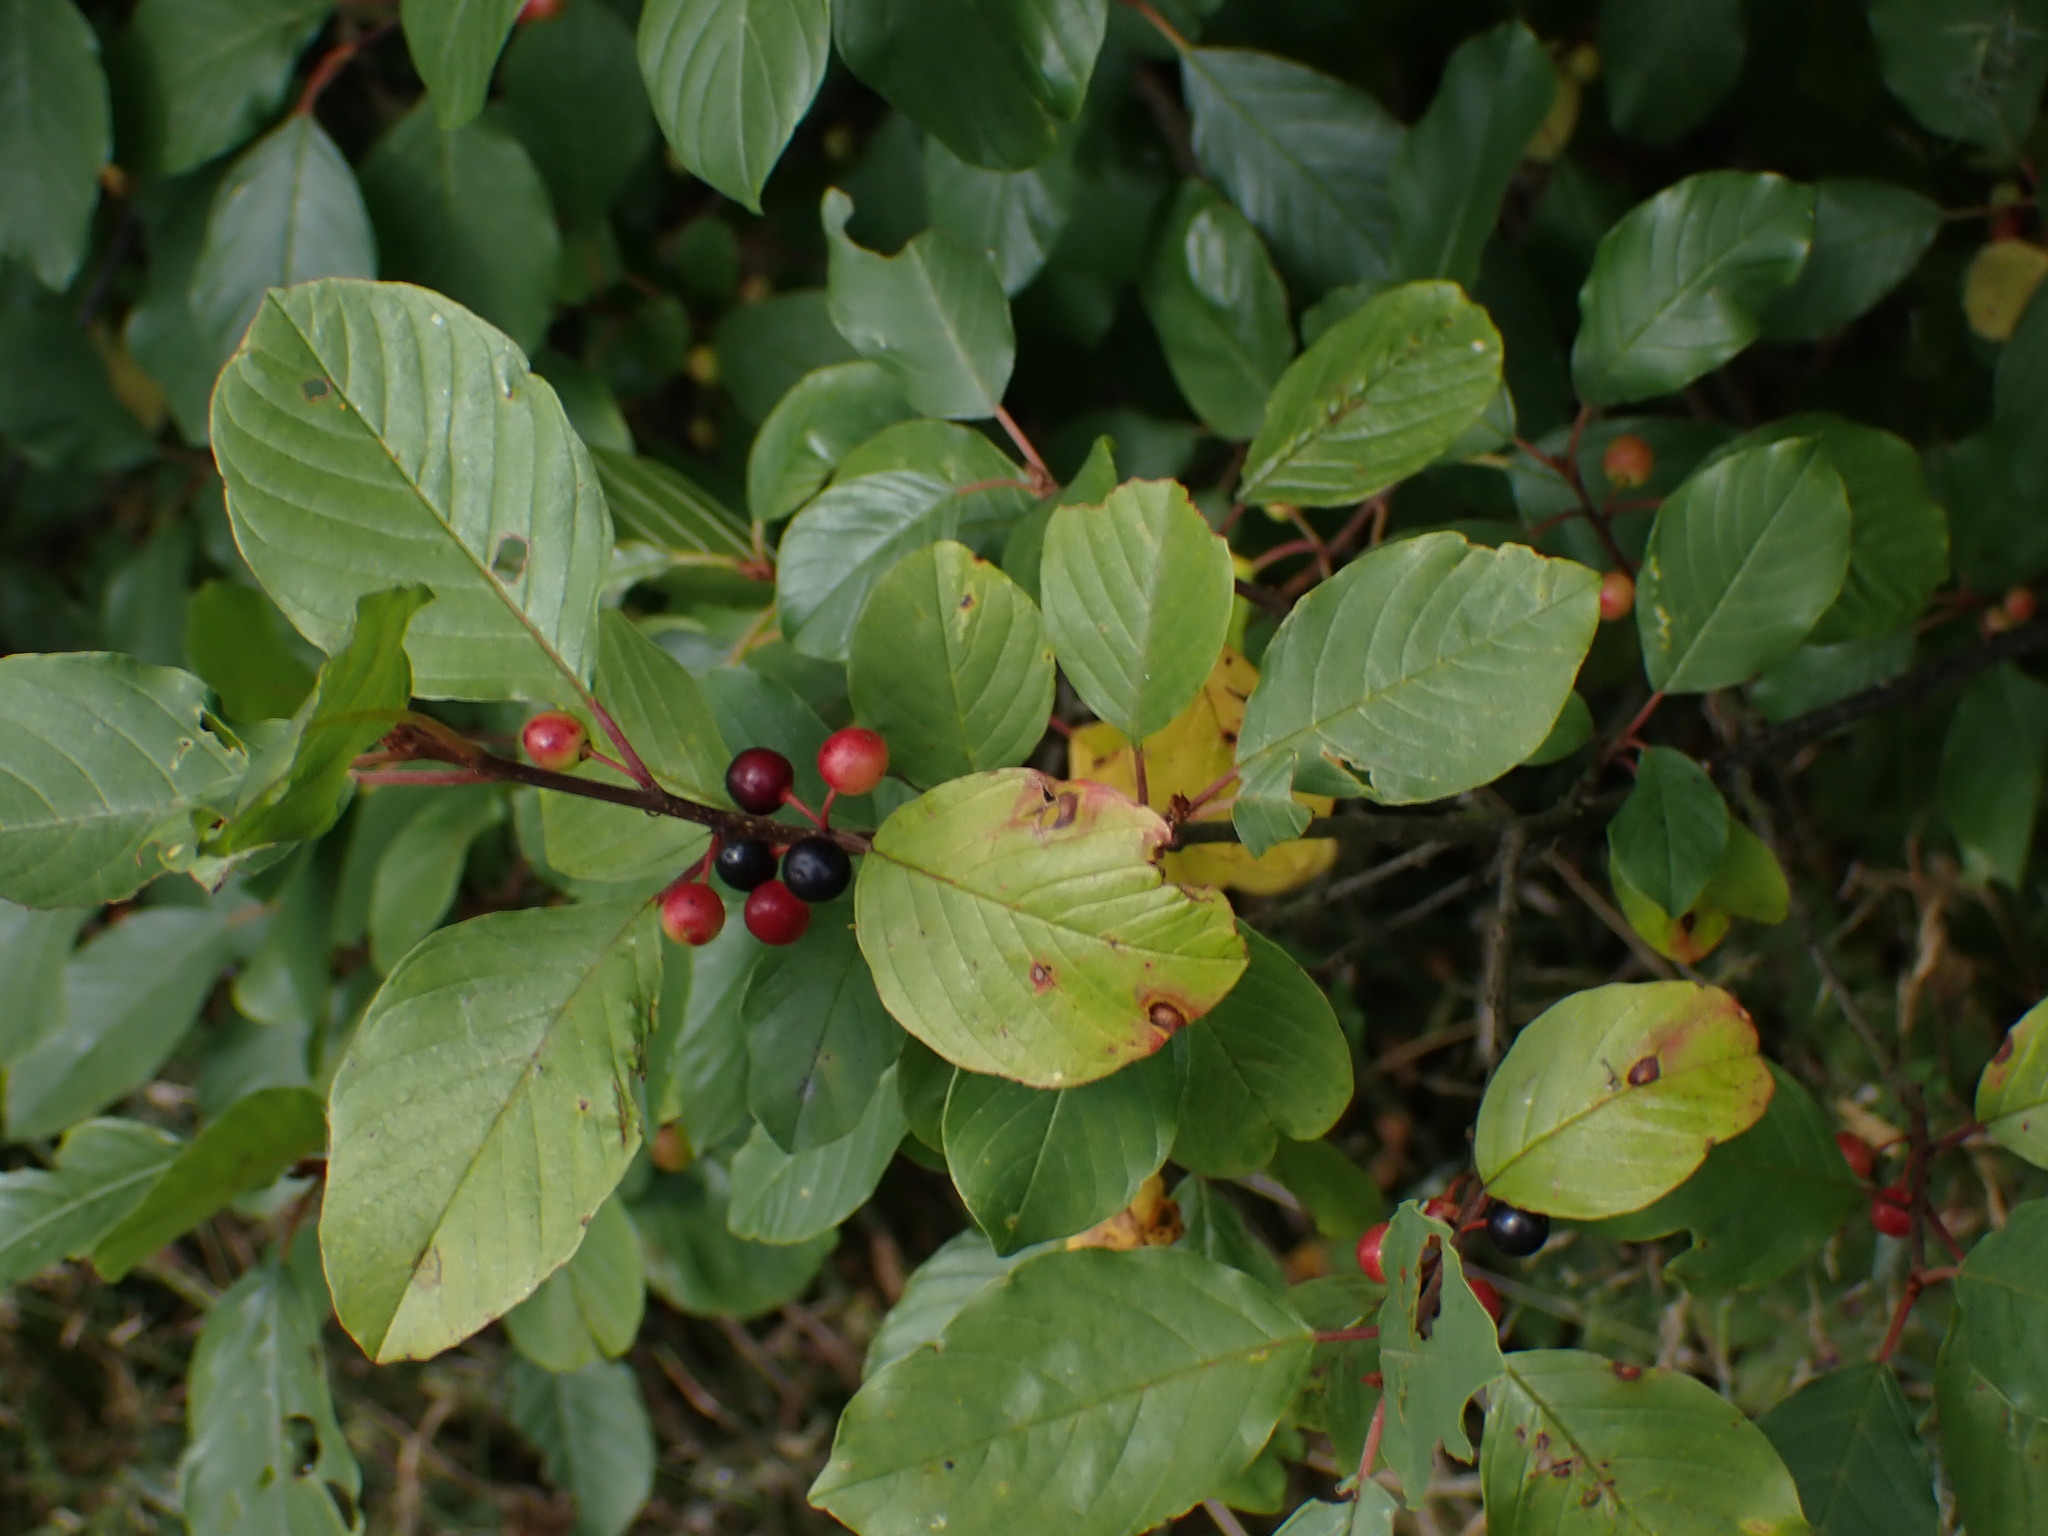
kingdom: Plantae
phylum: Tracheophyta
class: Magnoliopsida
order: Rosales
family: Rhamnaceae
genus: Frangula
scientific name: Frangula alnus
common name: Alder buckthorn
